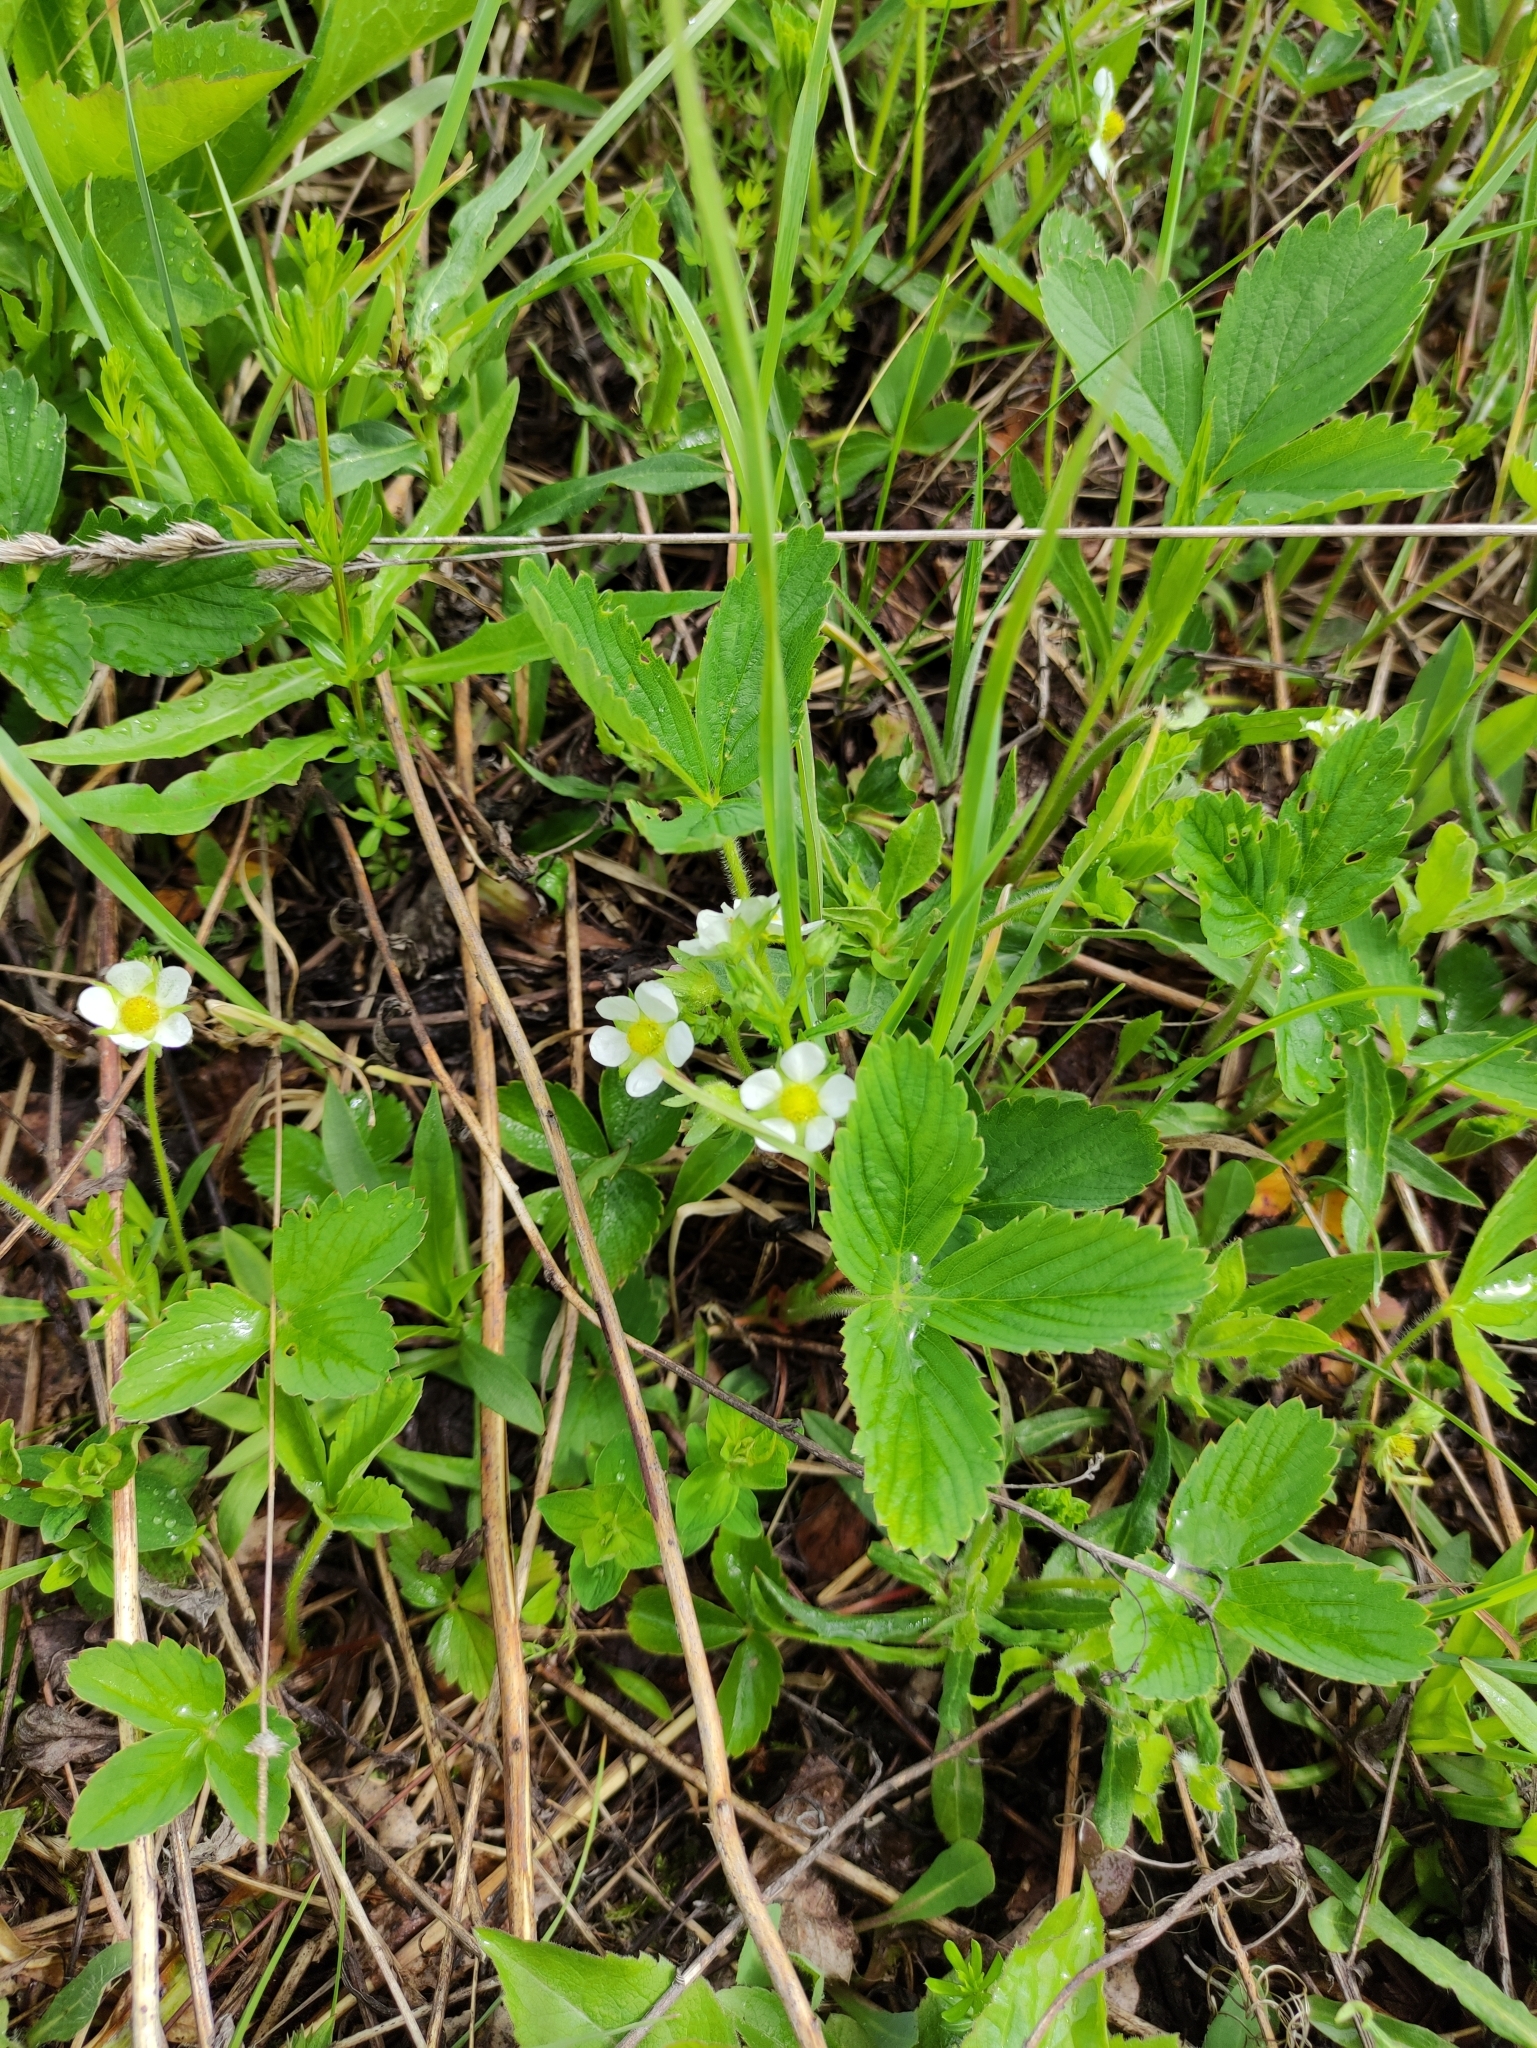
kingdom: Plantae
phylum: Tracheophyta
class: Magnoliopsida
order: Rosales
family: Rosaceae
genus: Fragaria
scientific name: Fragaria ananassa
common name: Garden strawberry
